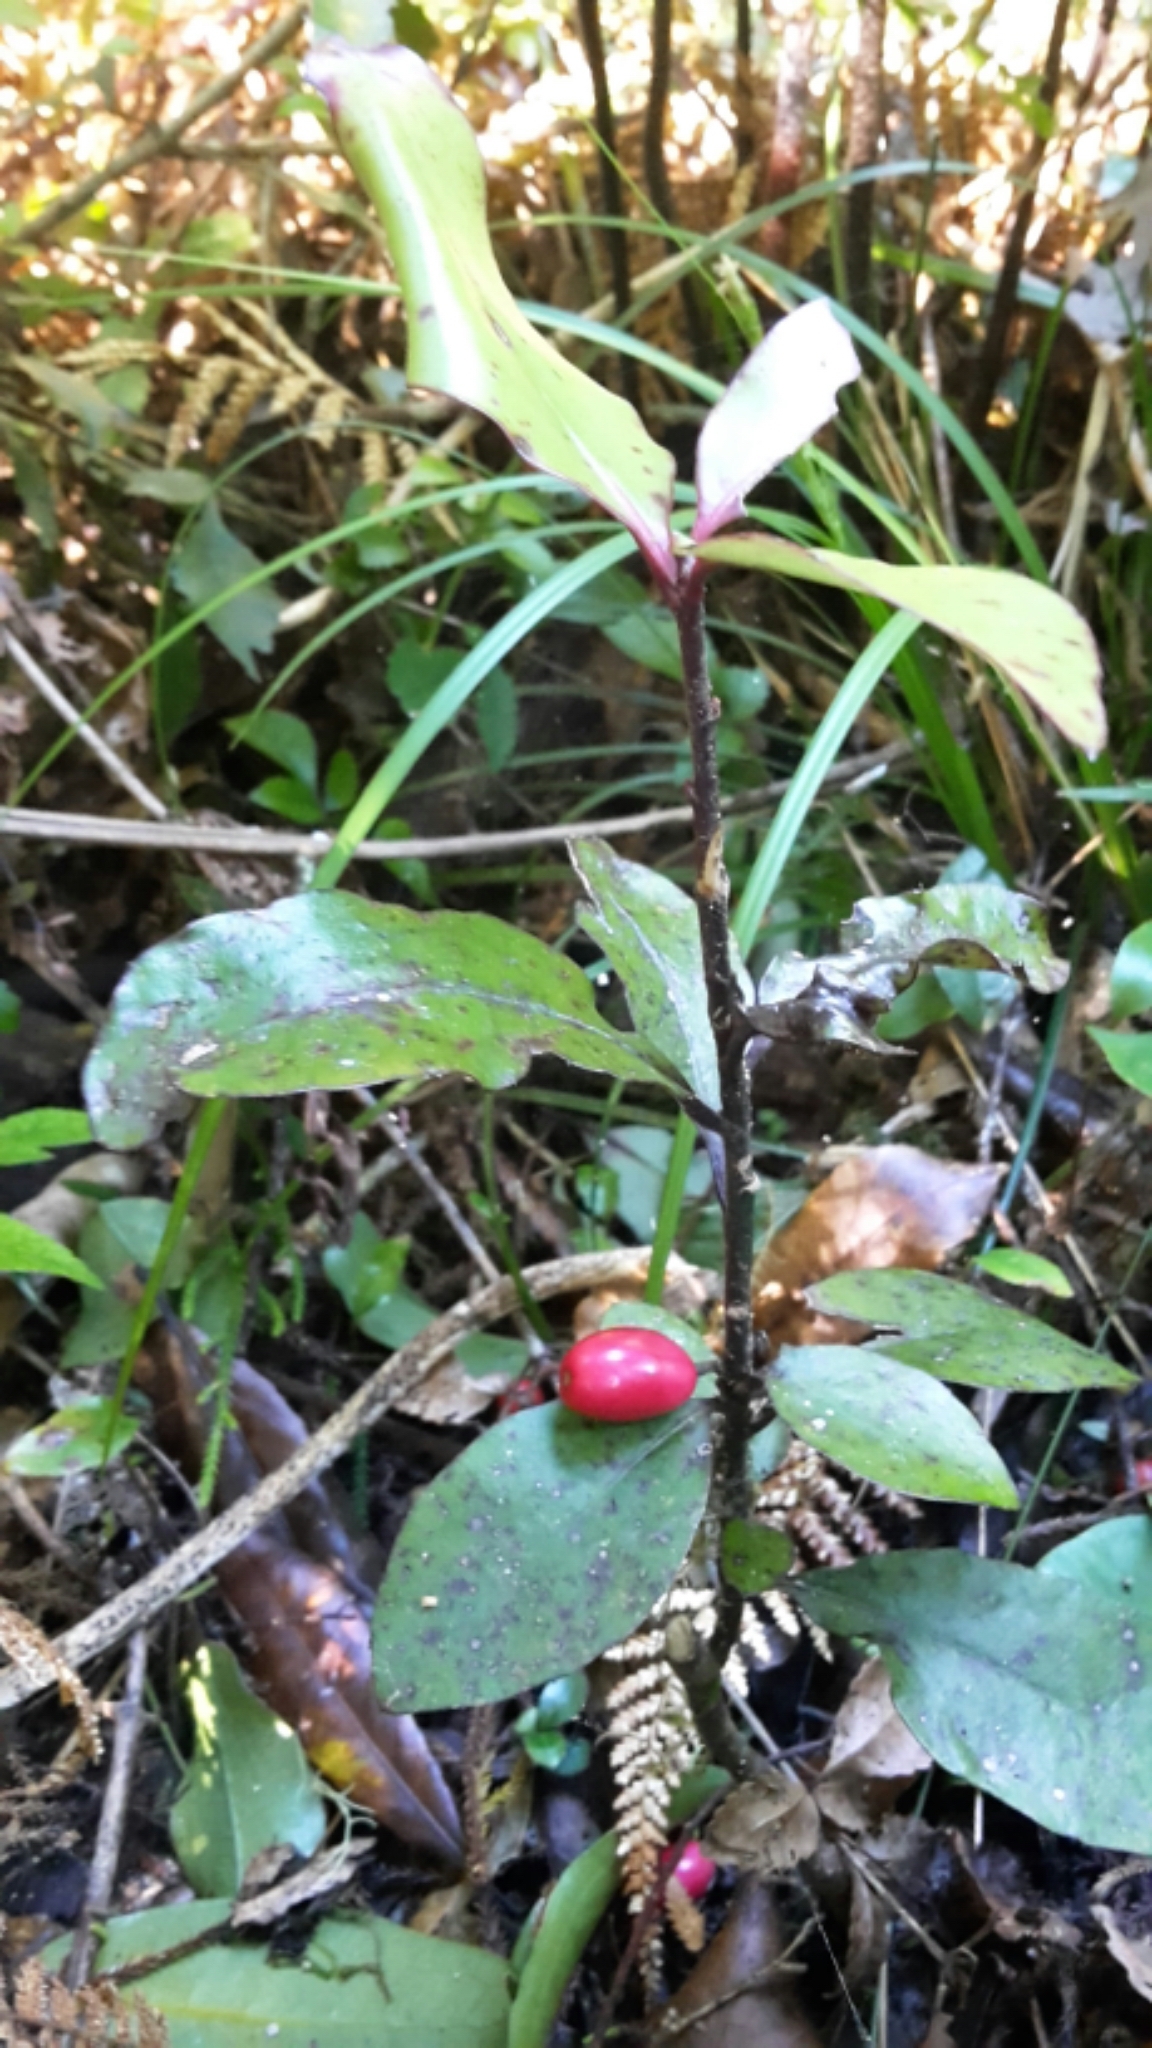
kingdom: Plantae
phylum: Tracheophyta
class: Magnoliopsida
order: Asterales
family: Alseuosmiaceae
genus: Alseuosmia
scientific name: Alseuosmia pusilla
